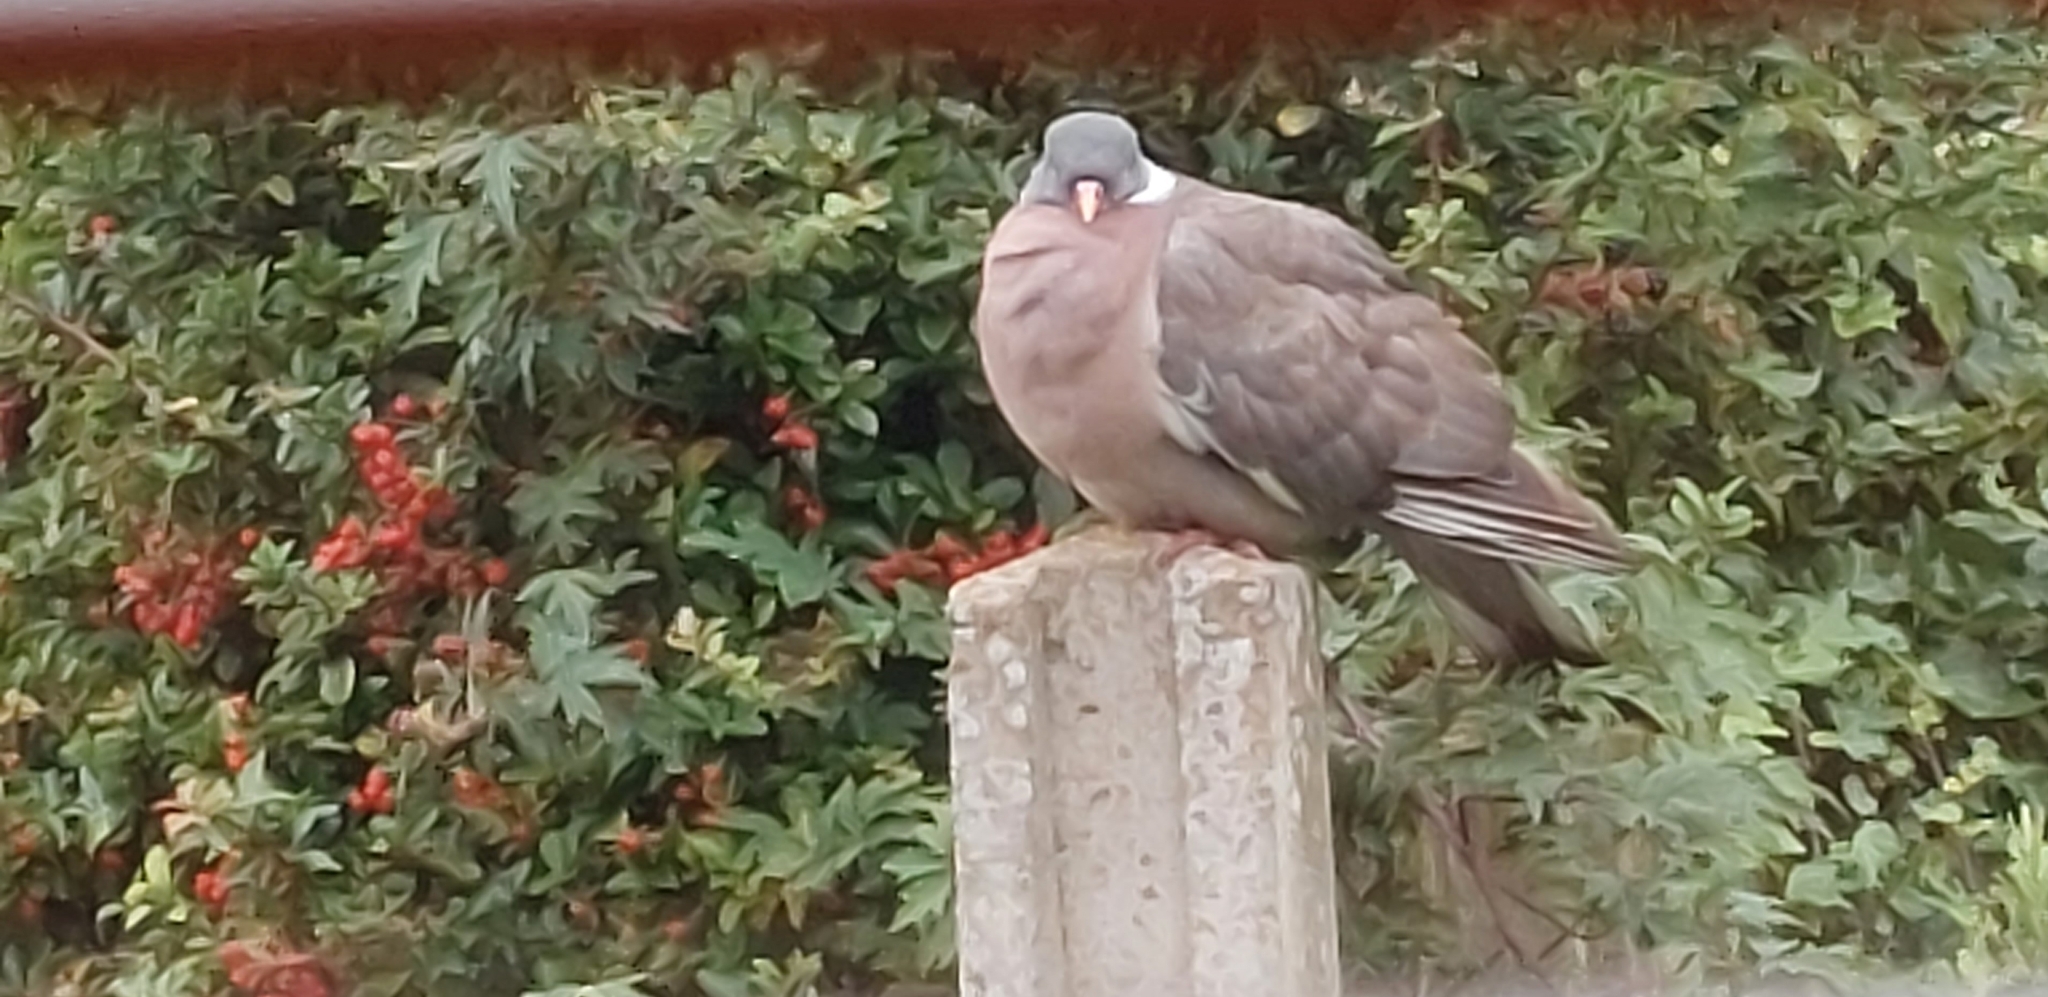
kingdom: Animalia
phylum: Chordata
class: Aves
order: Columbiformes
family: Columbidae
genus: Columba
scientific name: Columba palumbus
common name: Common wood pigeon
